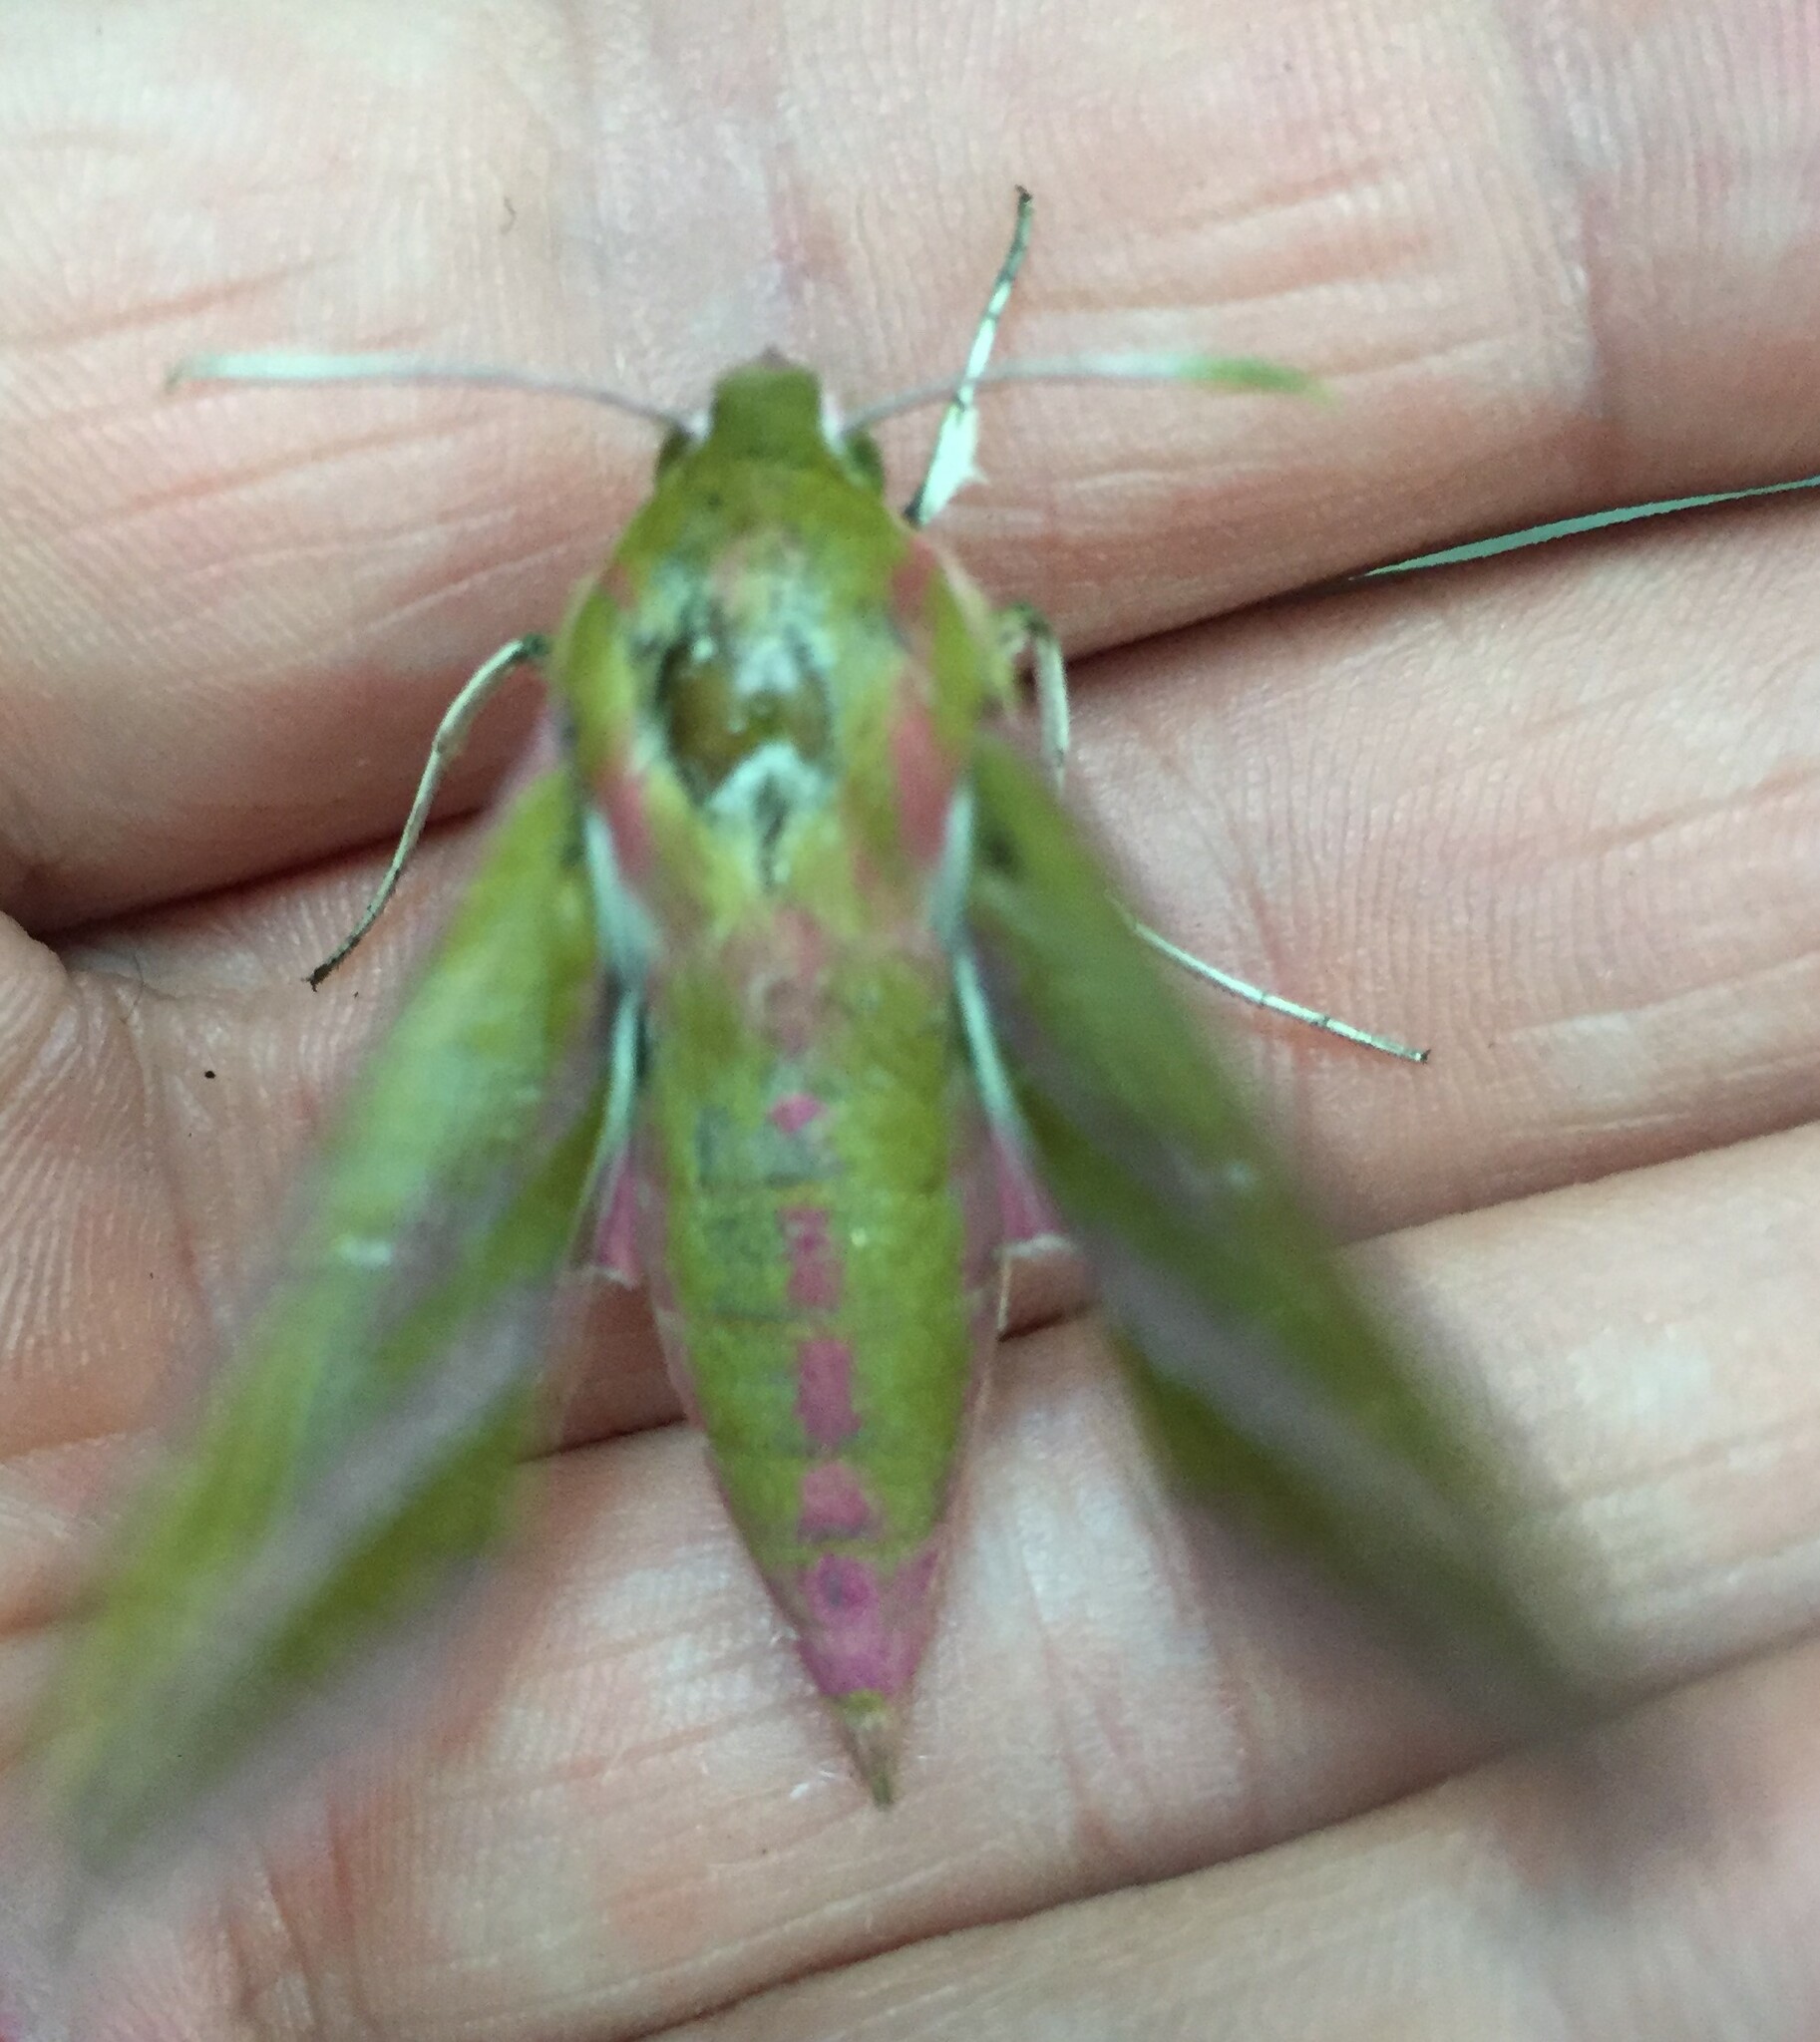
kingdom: Animalia
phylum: Arthropoda
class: Insecta
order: Lepidoptera
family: Sphingidae
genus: Deilephila
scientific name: Deilephila elpenor
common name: Elephant hawk-moth
